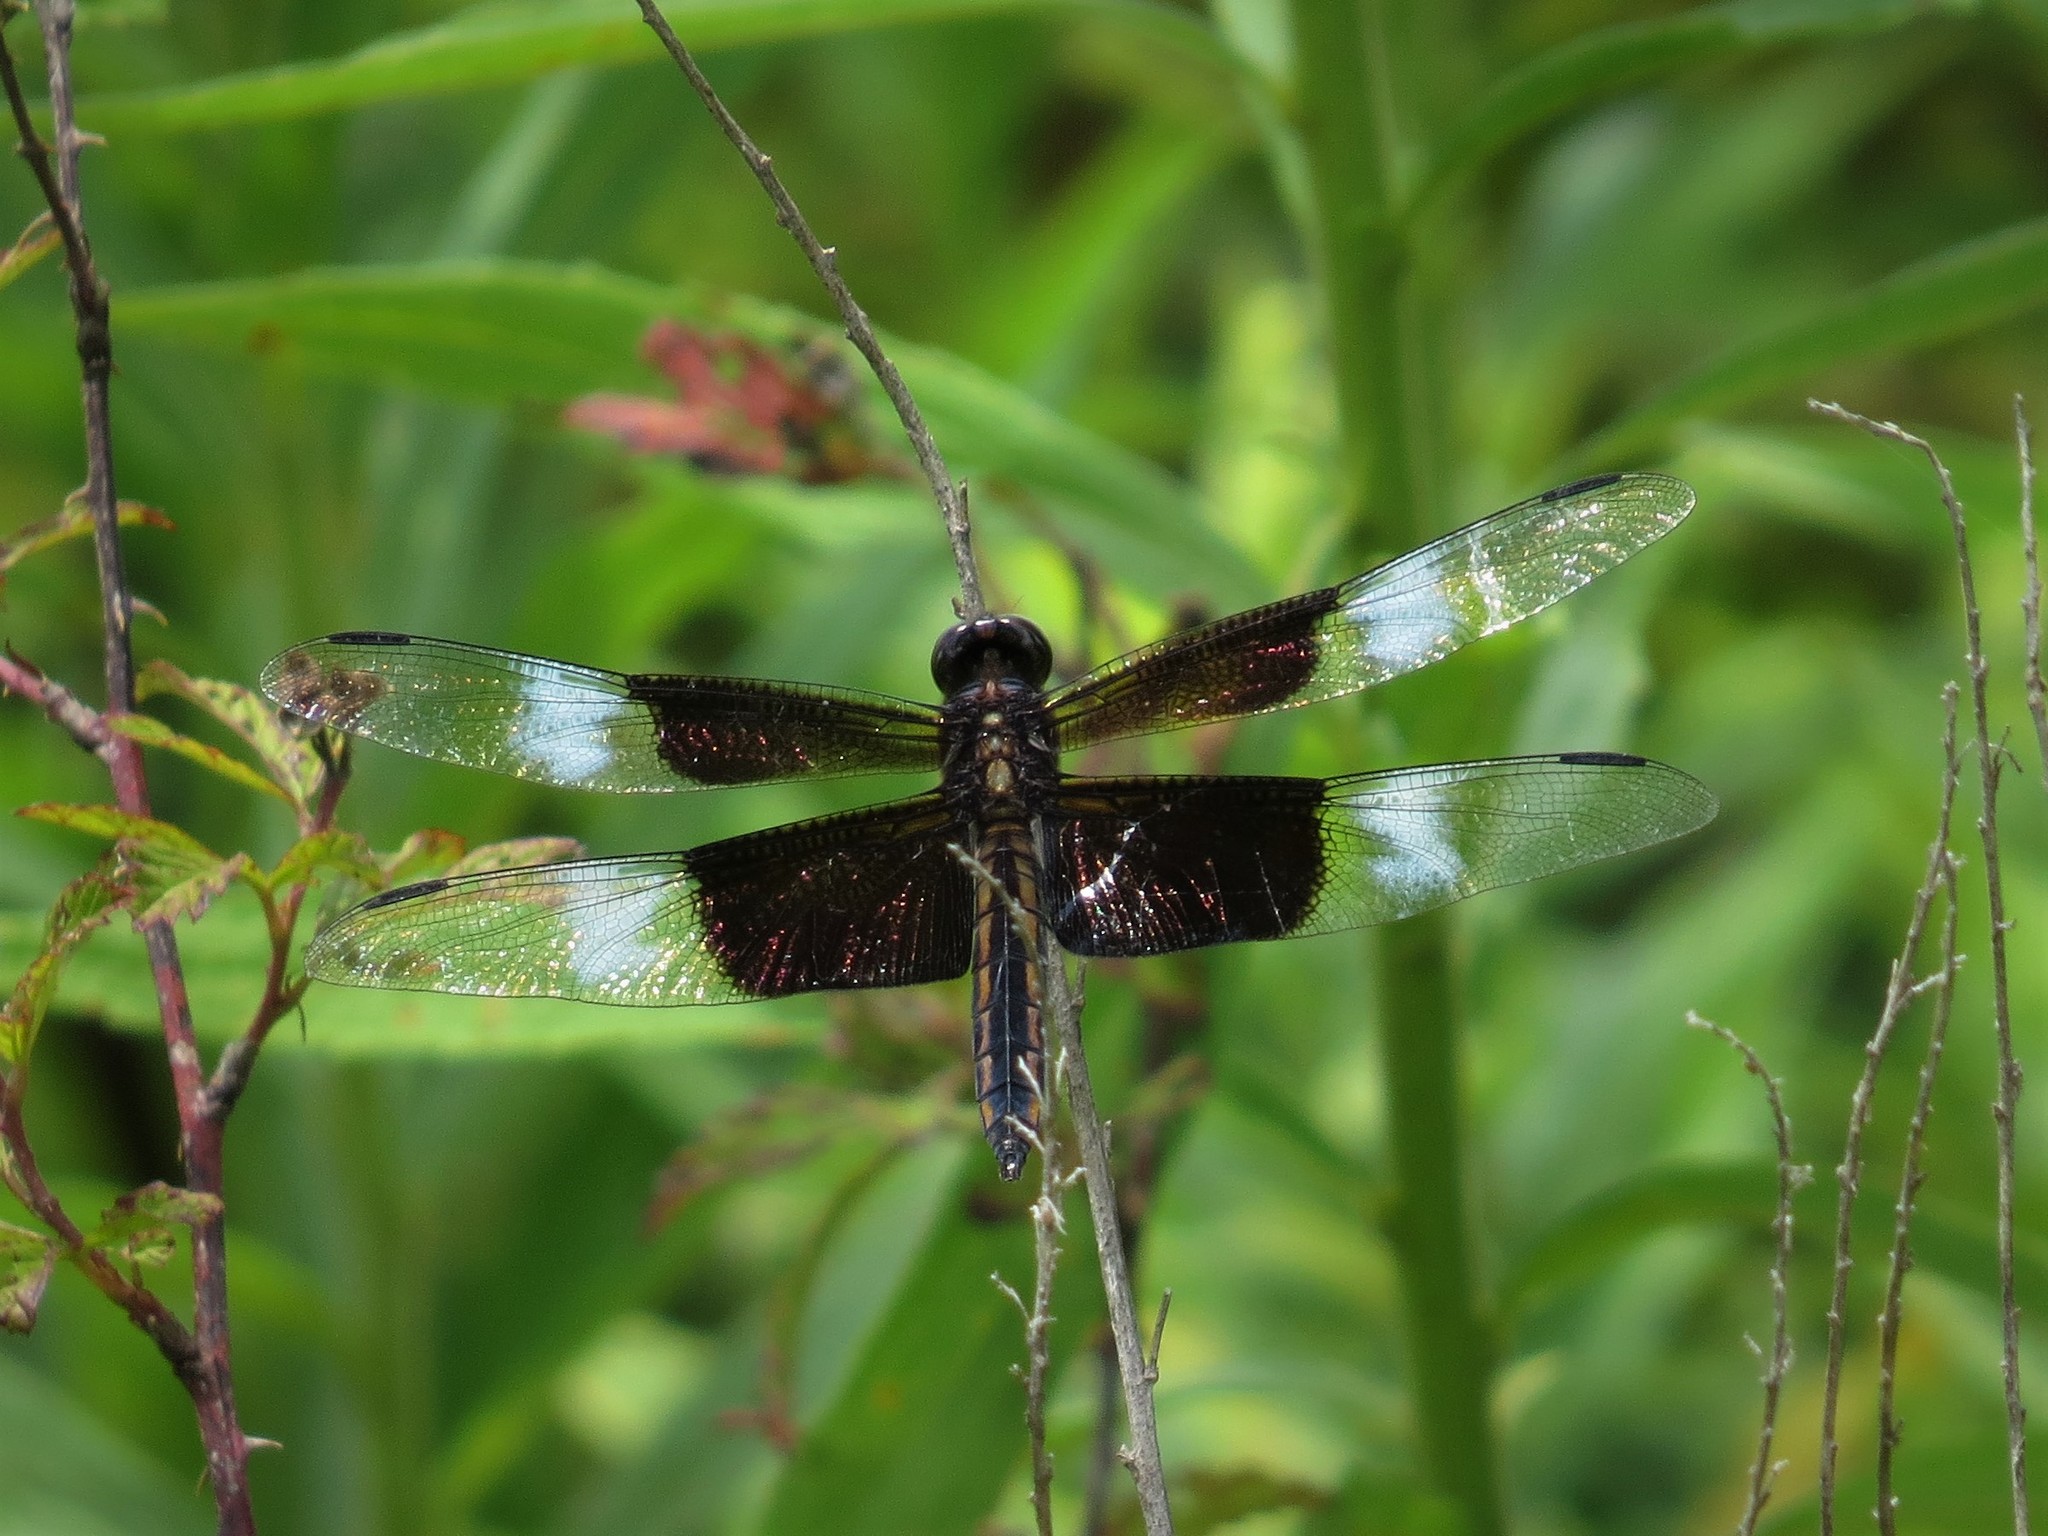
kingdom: Animalia
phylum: Arthropoda
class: Insecta
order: Odonata
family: Libellulidae
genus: Libellula
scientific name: Libellula luctuosa
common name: Widow skimmer
